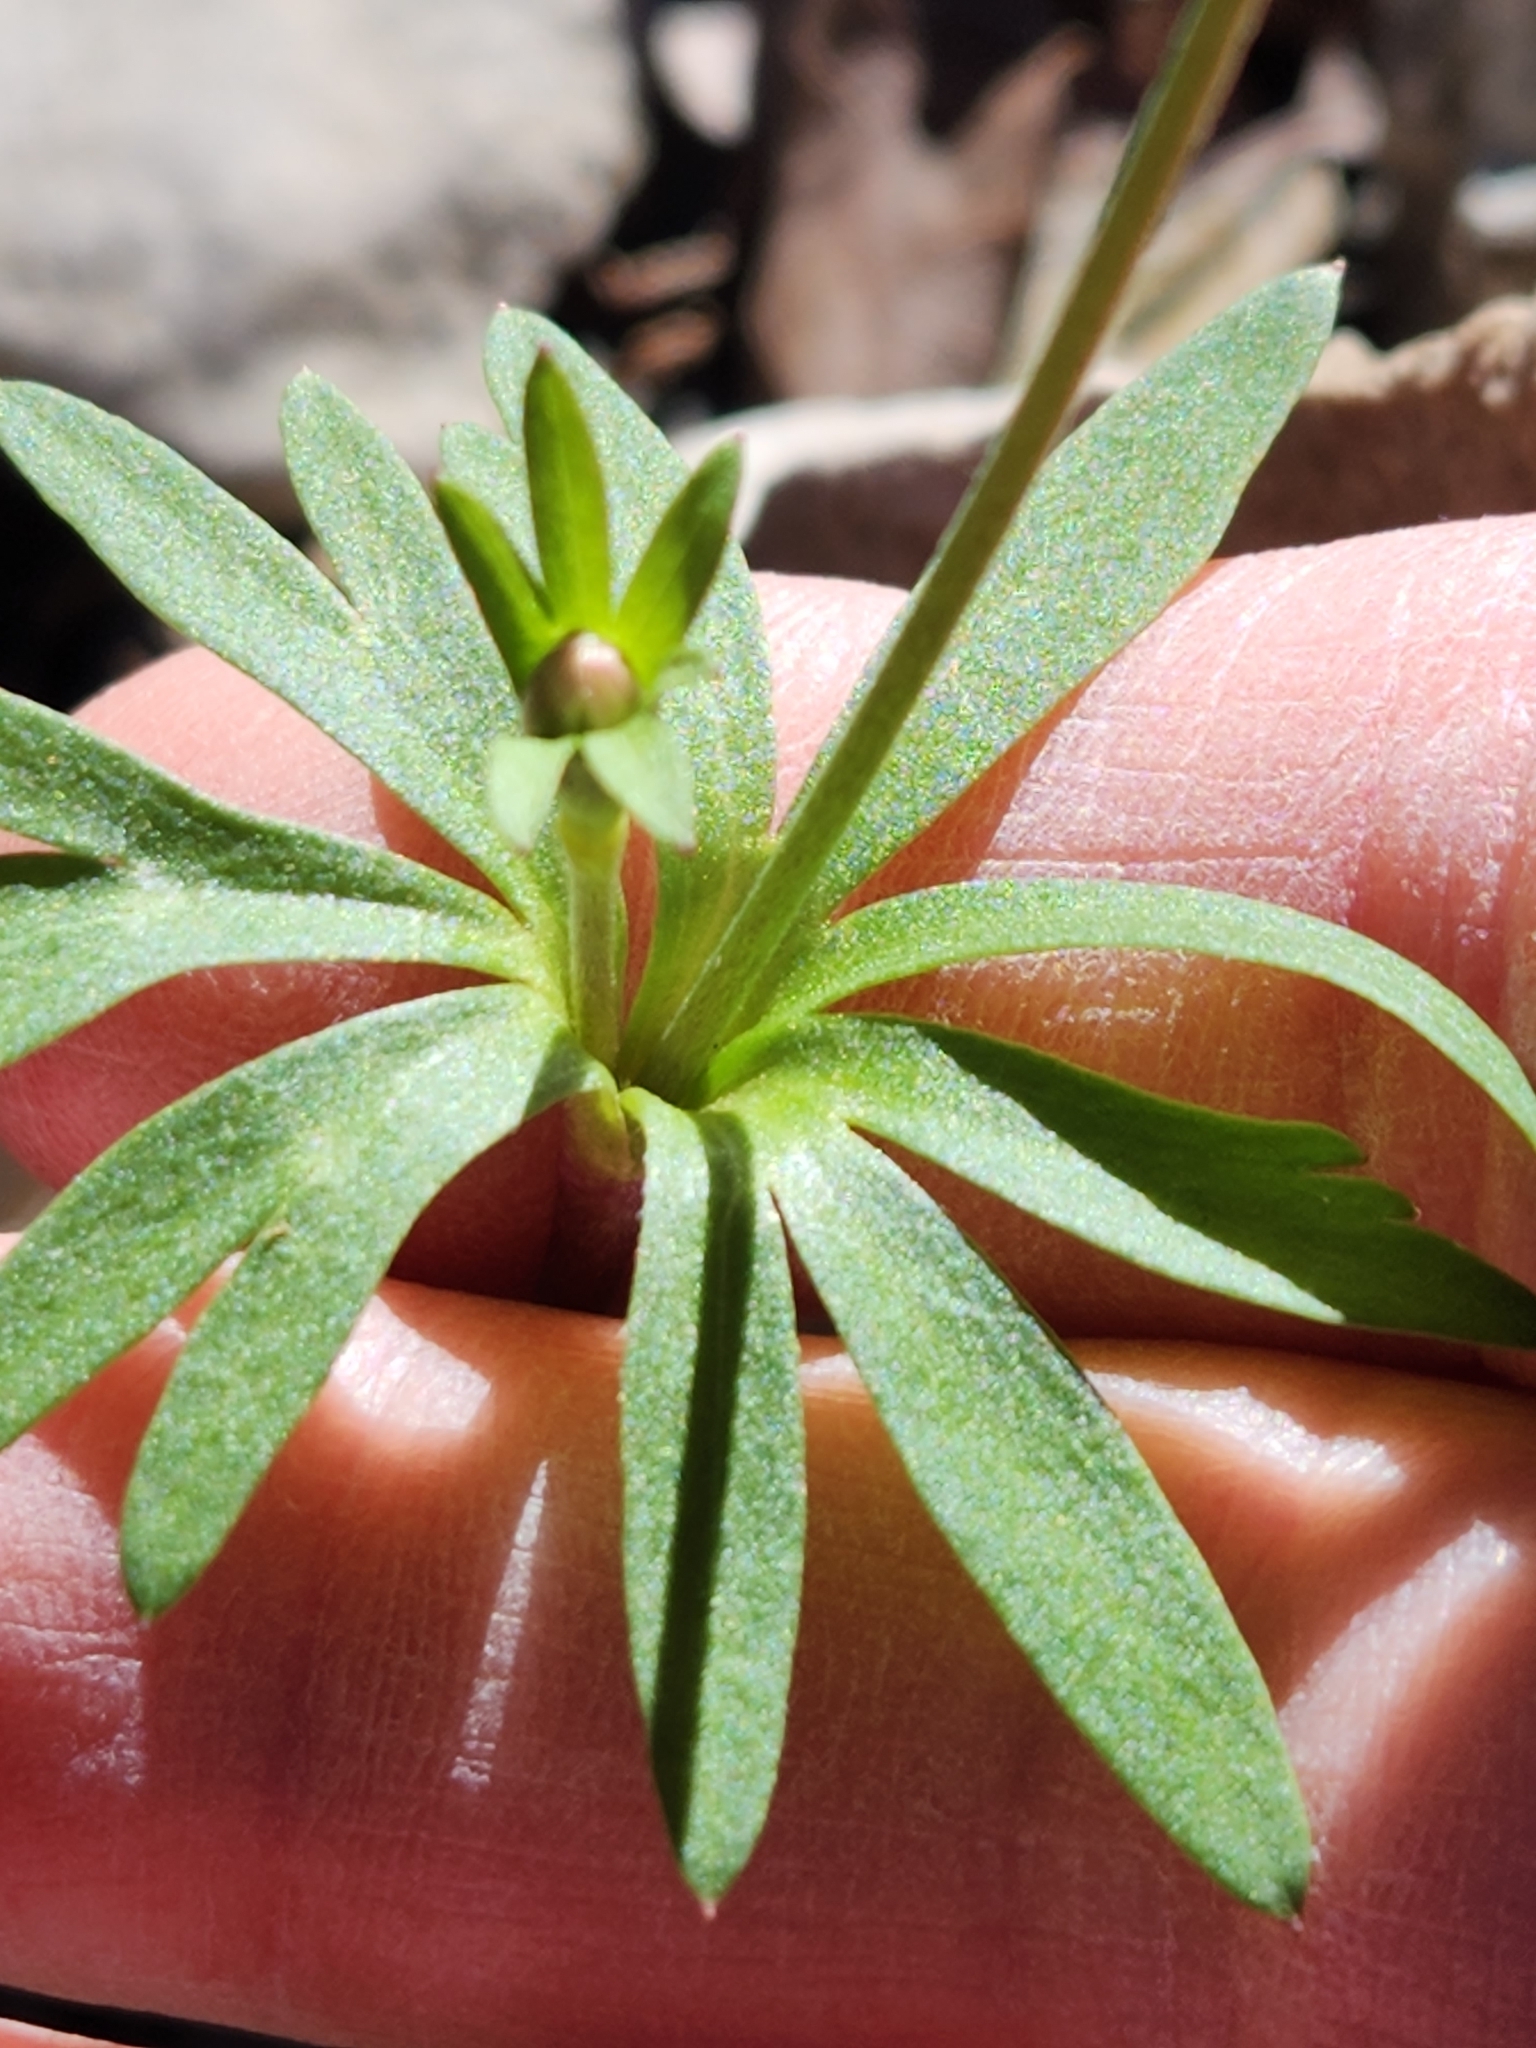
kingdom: Plantae
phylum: Tracheophyta
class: Magnoliopsida
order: Ranunculales
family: Ranunculaceae
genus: Anemone
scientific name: Anemone edwardsiana
